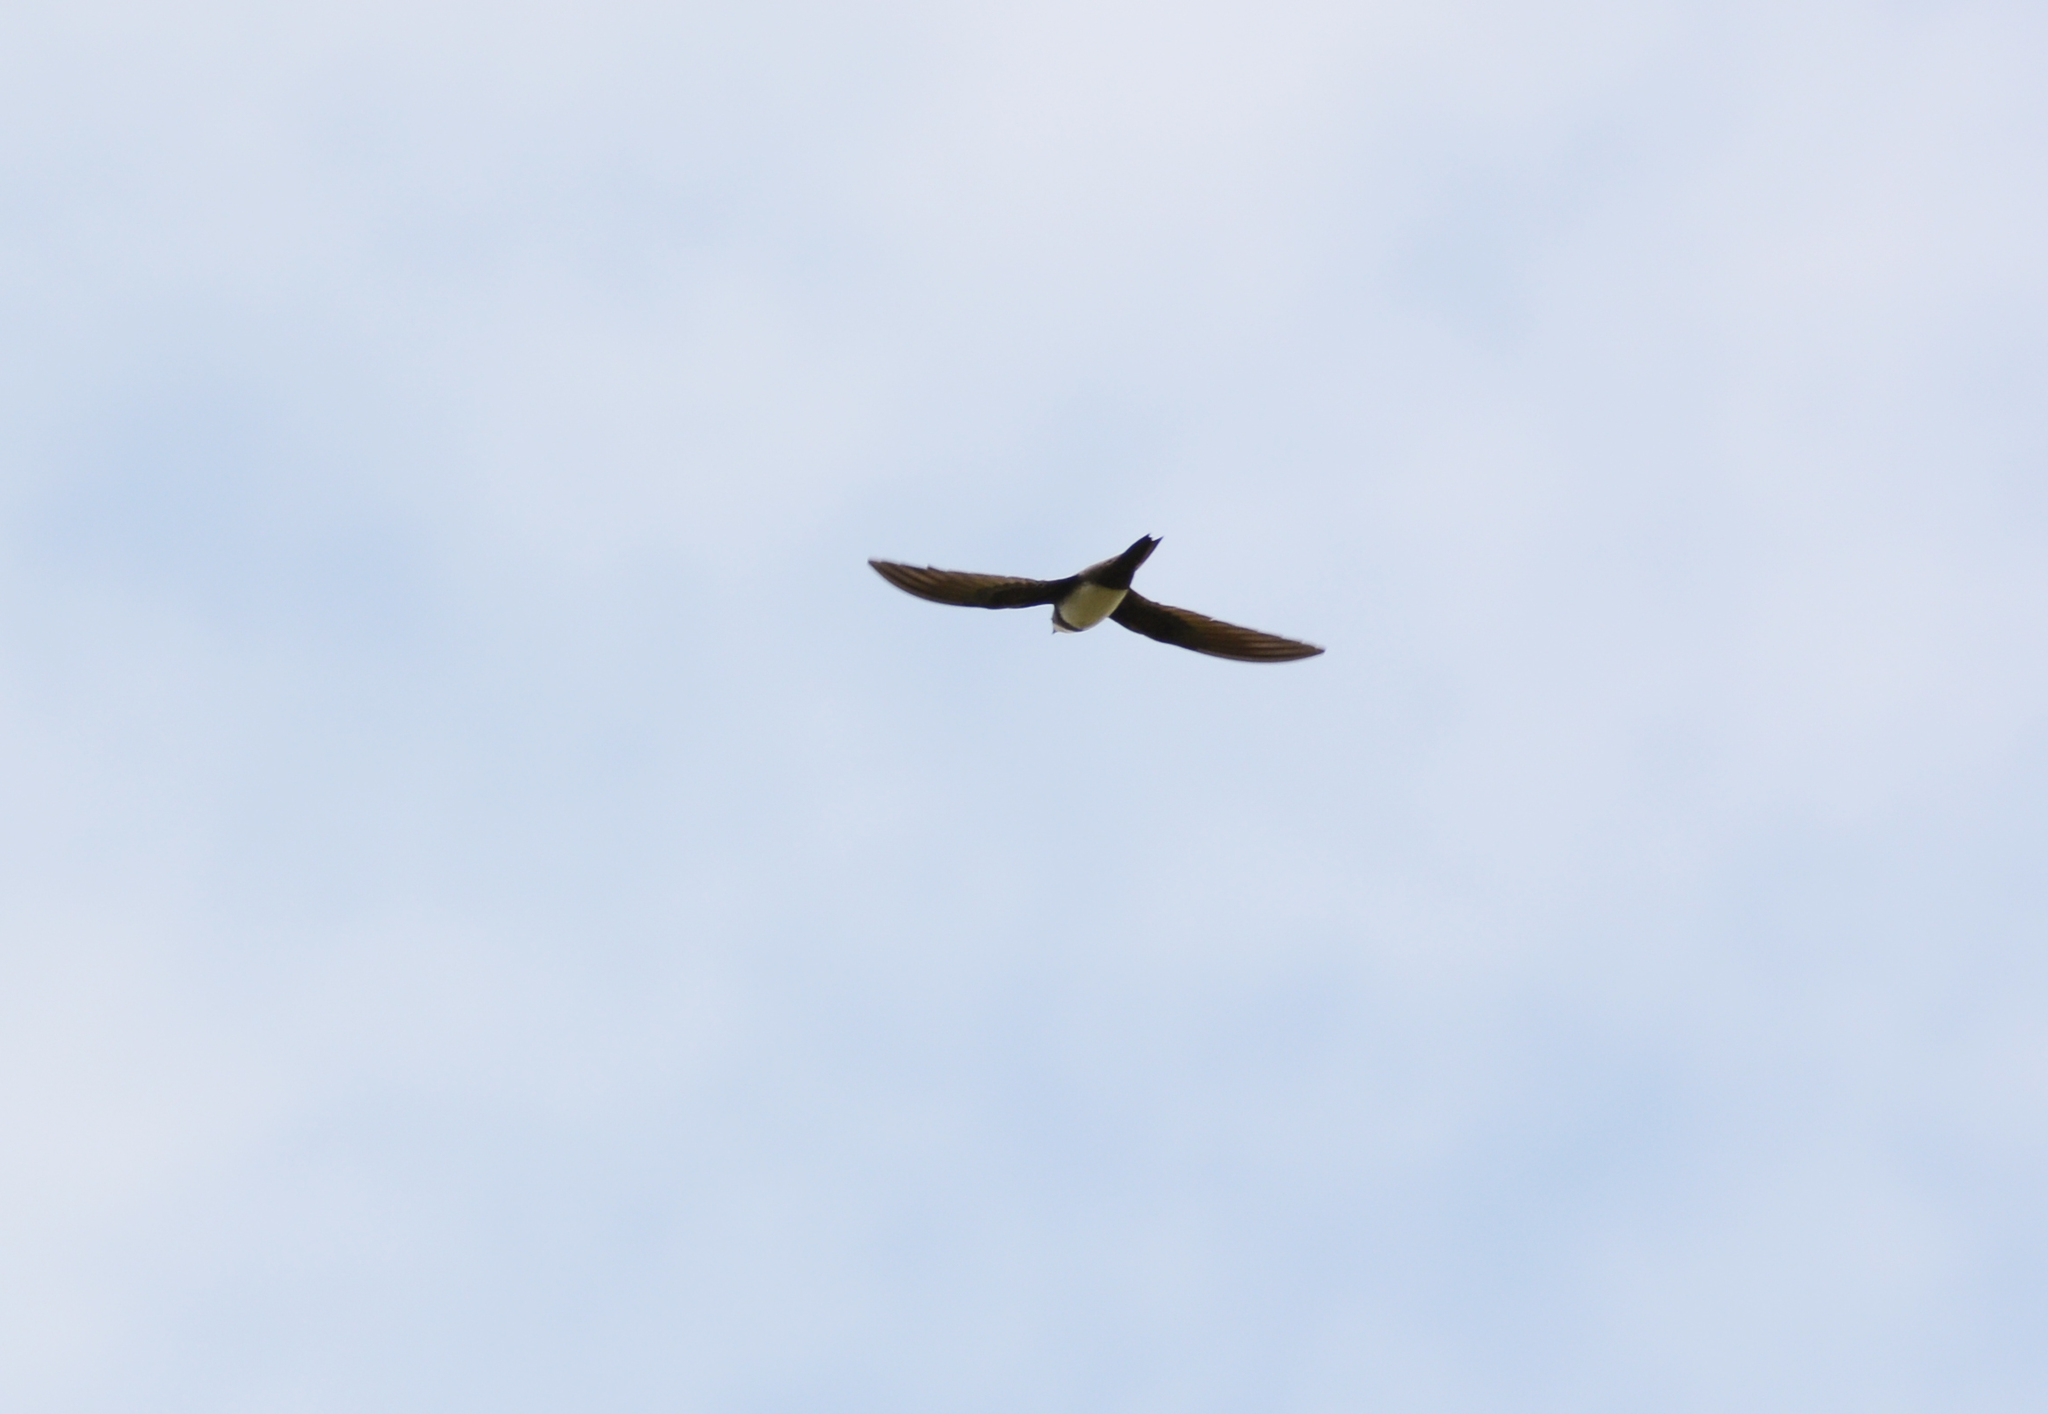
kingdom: Animalia
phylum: Chordata
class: Aves
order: Apodiformes
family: Apodidae
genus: Tachymarptis
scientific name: Tachymarptis melba
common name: Alpine swift
